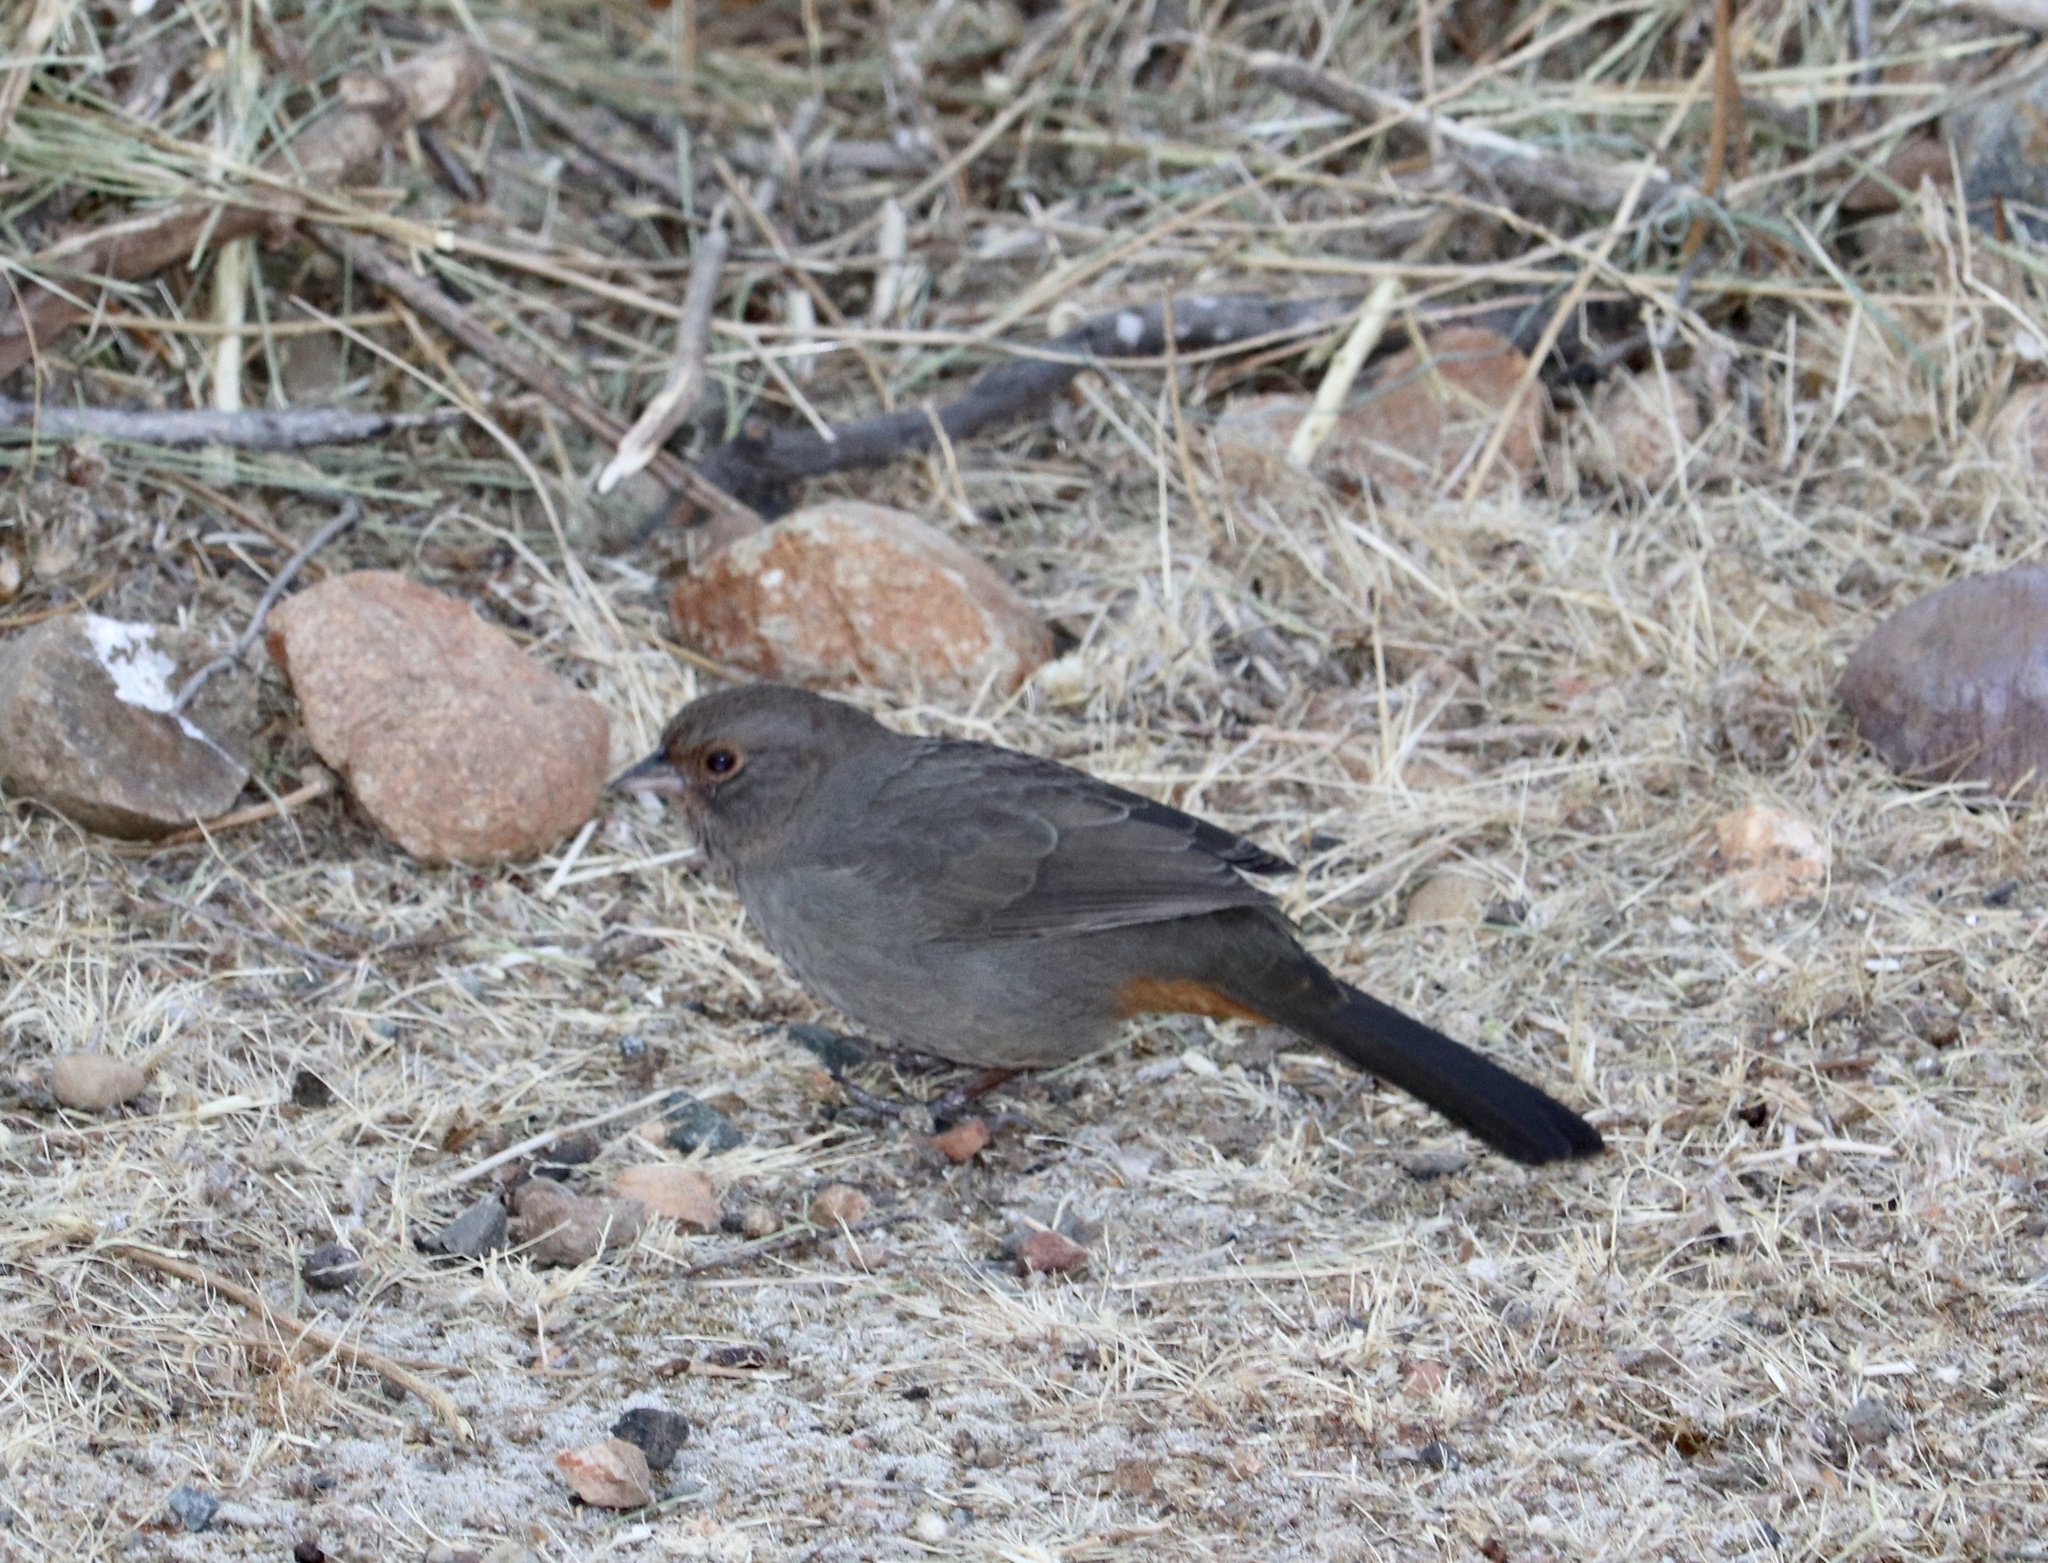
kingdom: Animalia
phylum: Chordata
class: Aves
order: Passeriformes
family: Passerellidae
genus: Melozone
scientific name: Melozone crissalis
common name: California towhee
